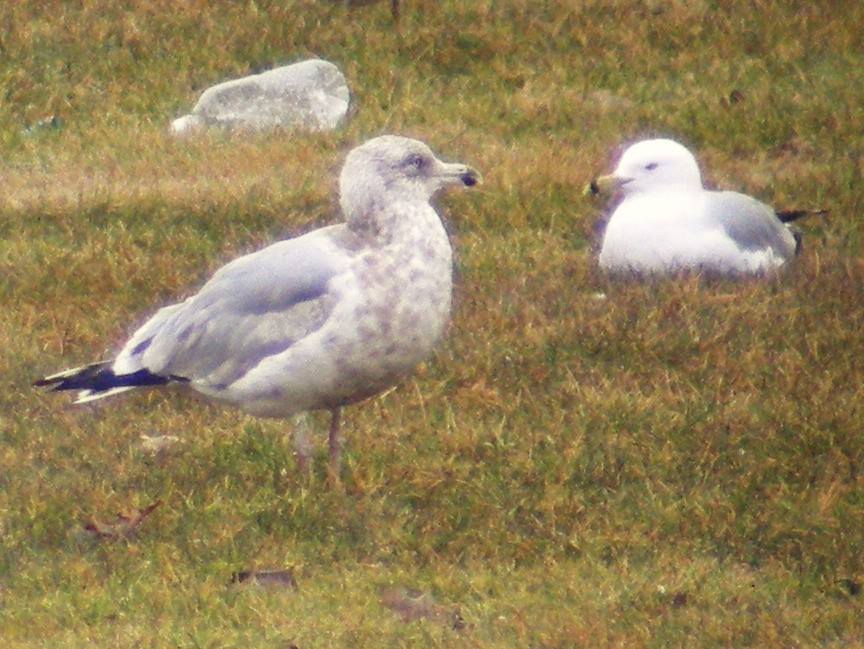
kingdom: Animalia
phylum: Chordata
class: Aves
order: Charadriiformes
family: Laridae
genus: Larus
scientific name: Larus argentatus
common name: Herring gull
